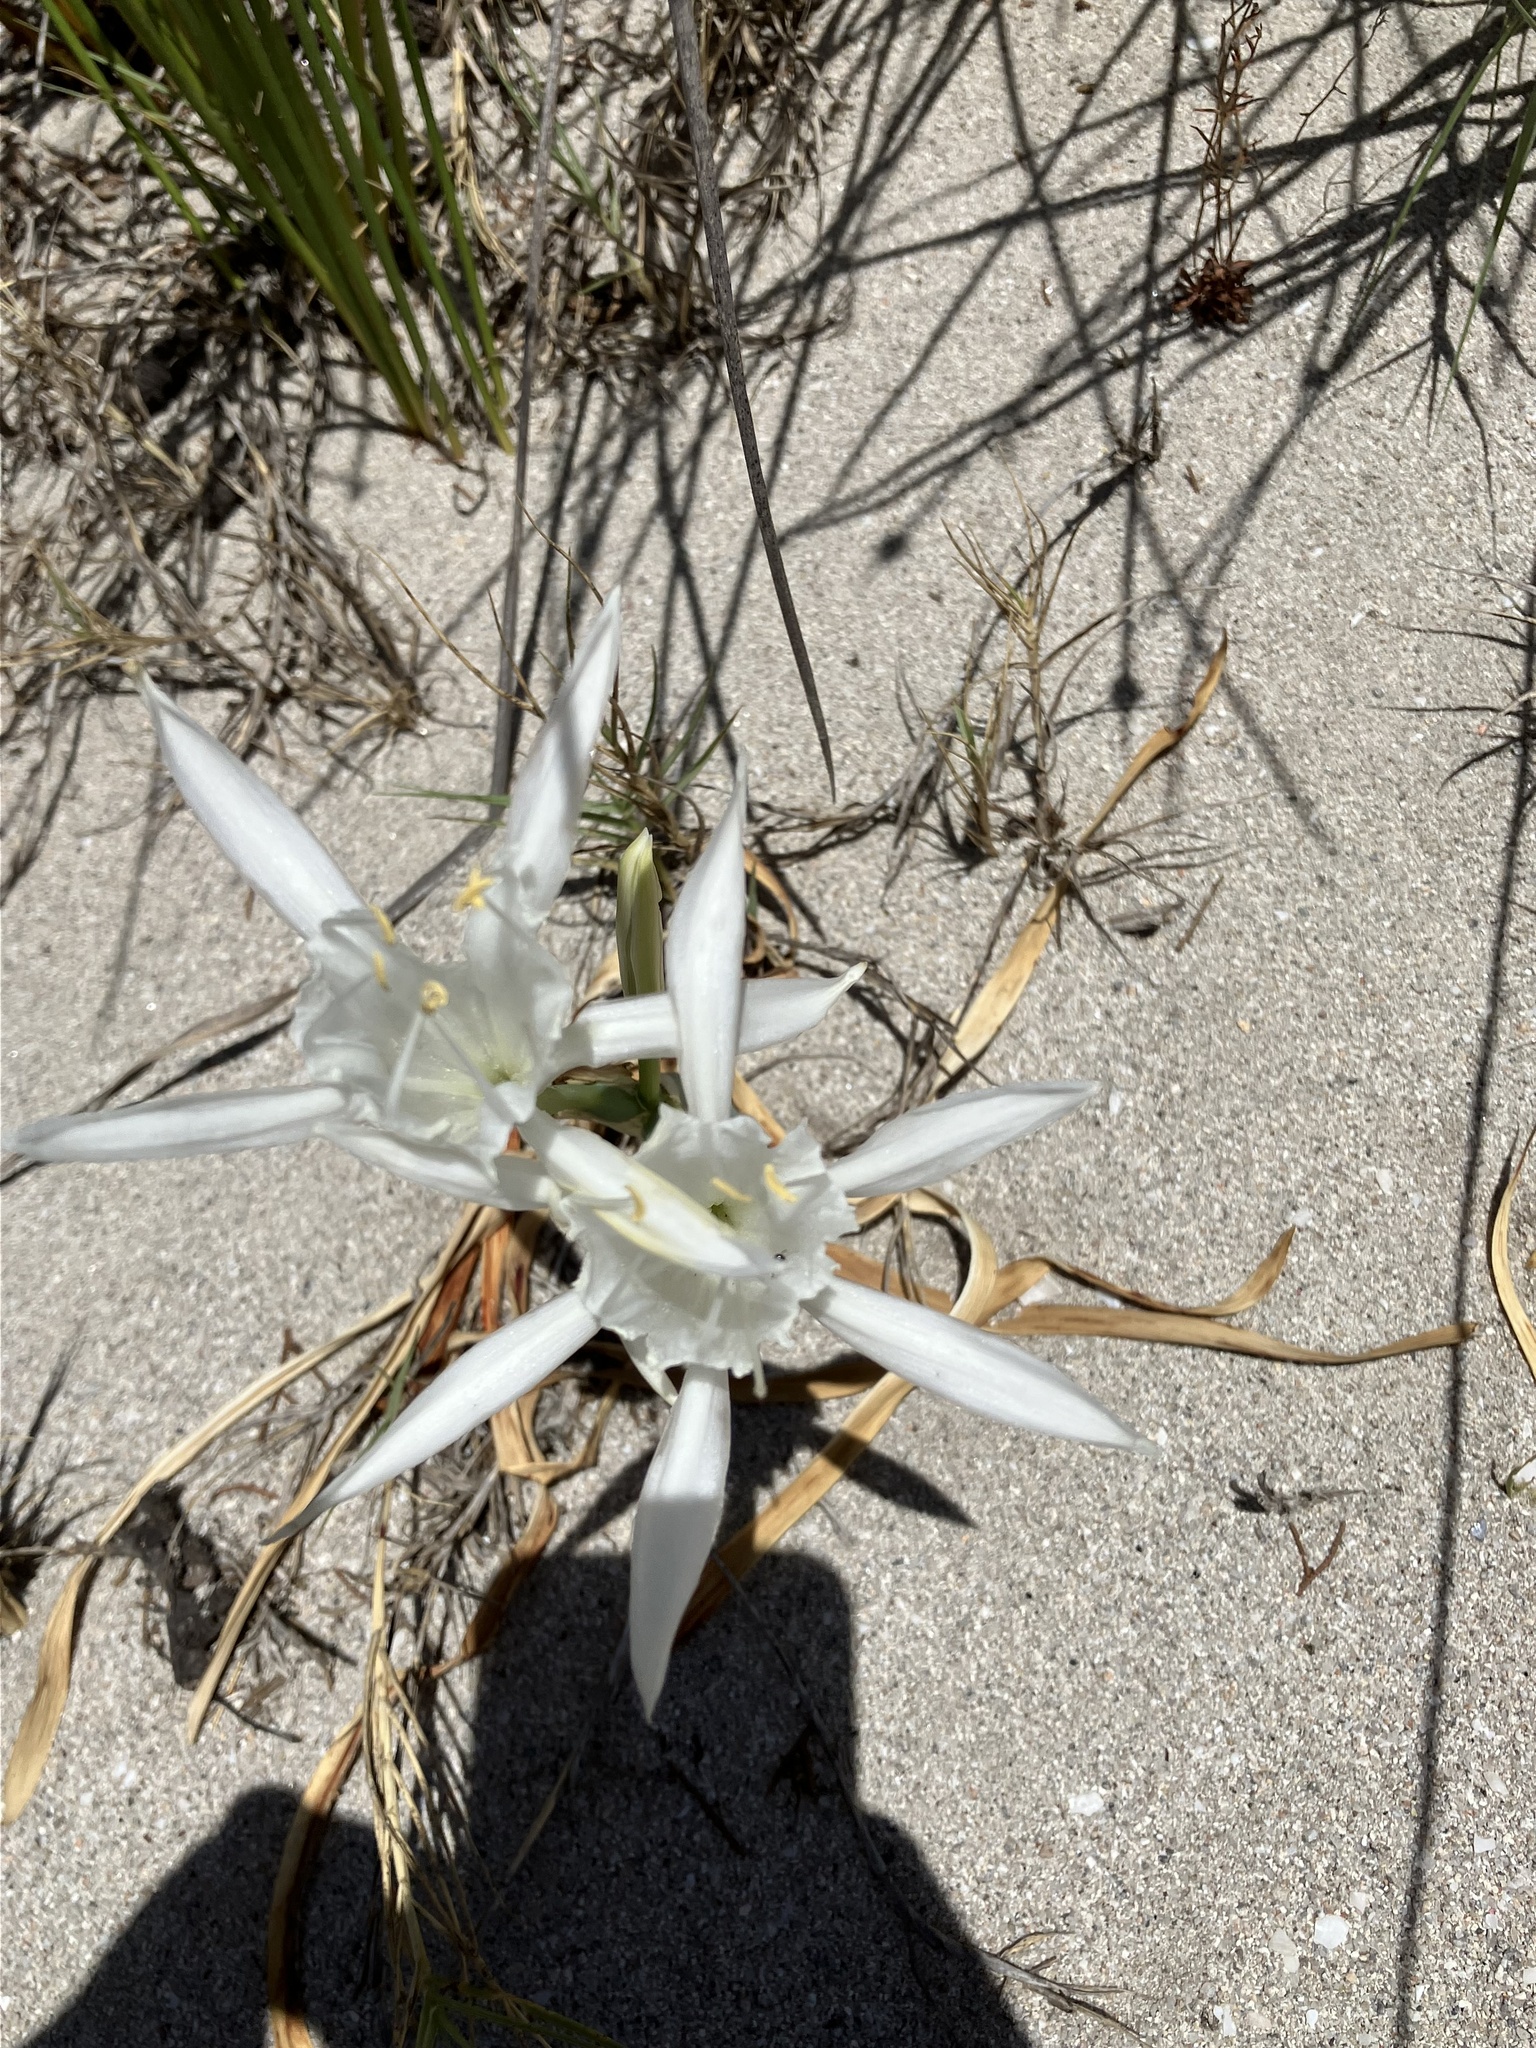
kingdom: Plantae
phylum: Tracheophyta
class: Liliopsida
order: Asparagales
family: Amaryllidaceae
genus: Pancratium
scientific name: Pancratium maritimum
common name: Sea-daffodil
